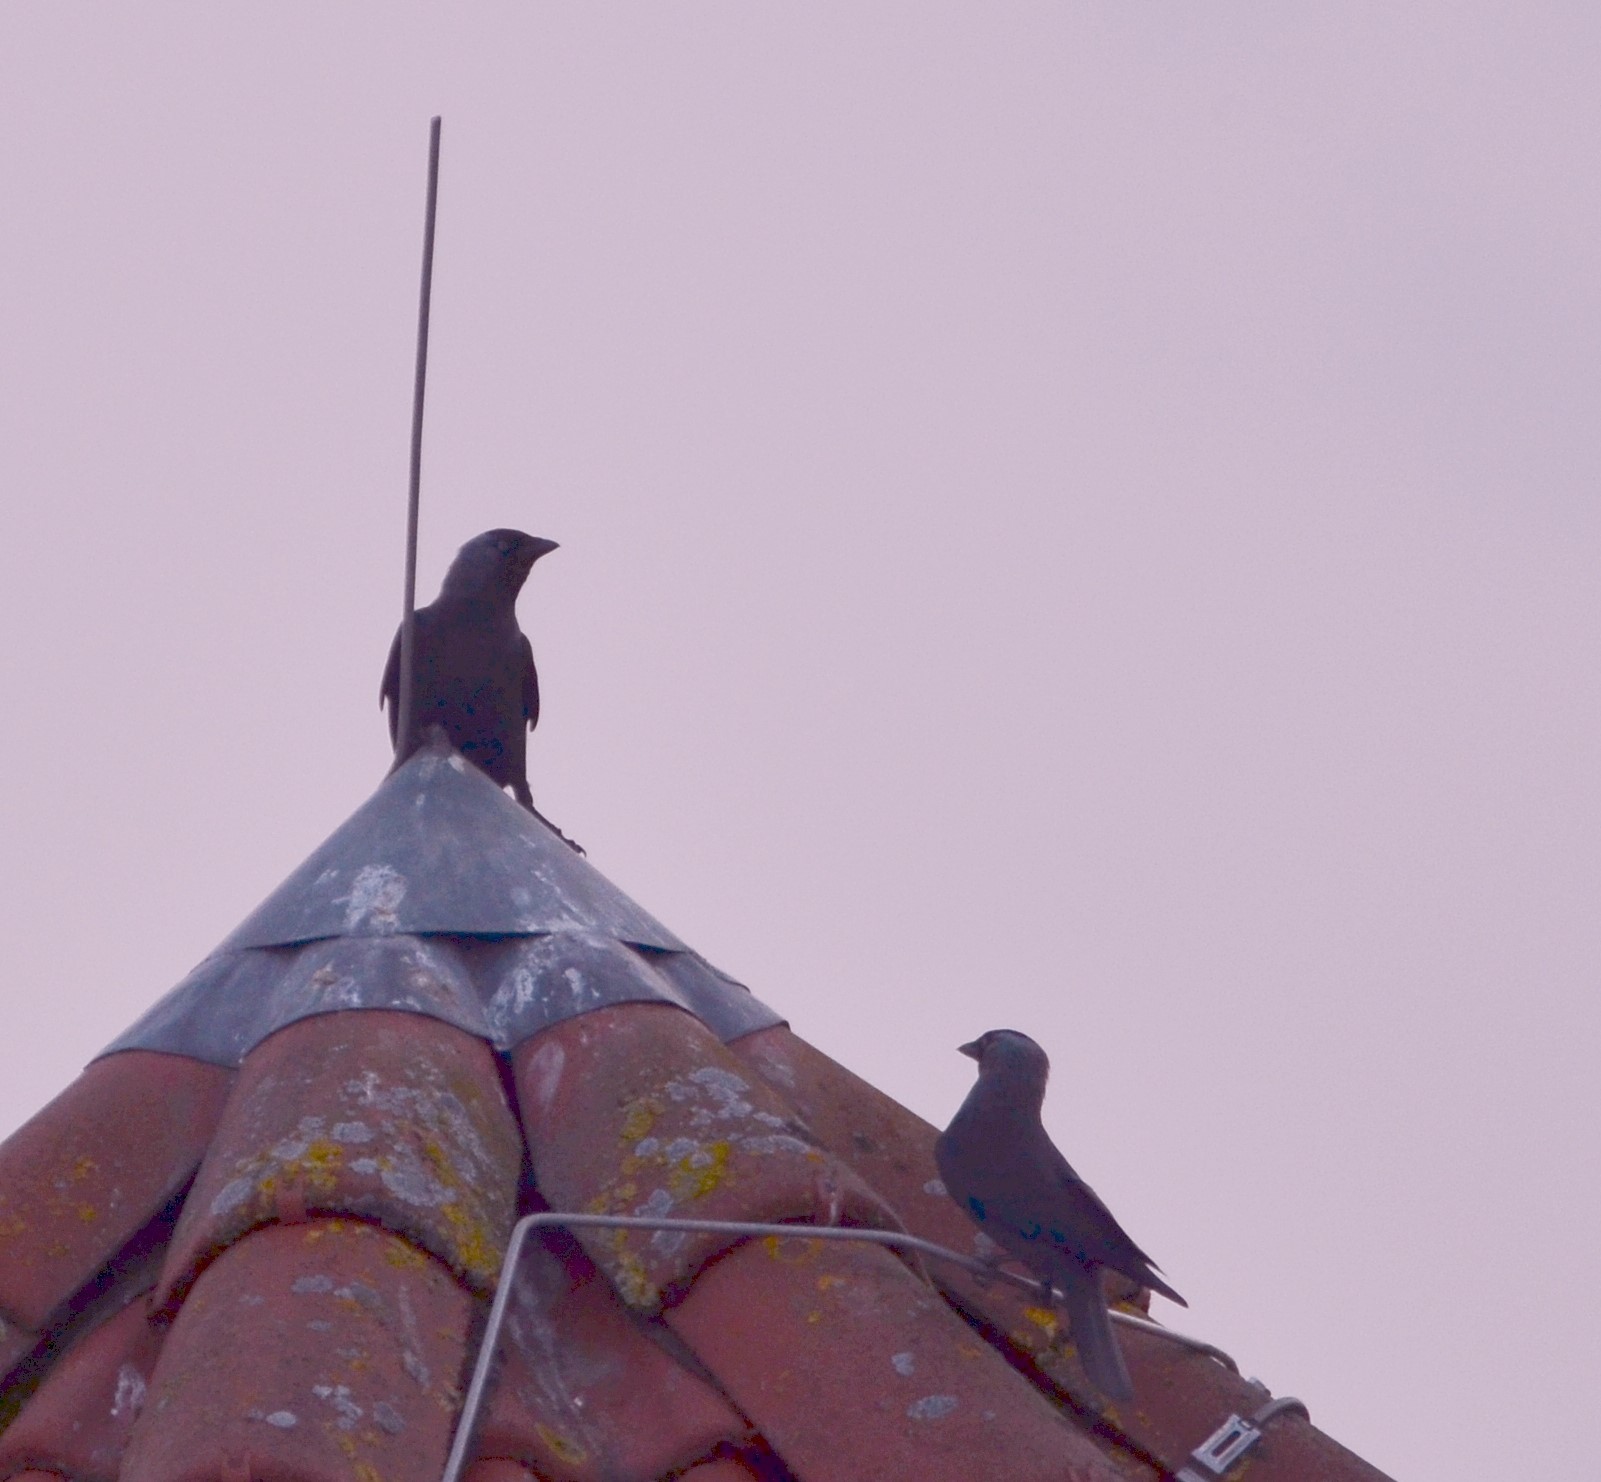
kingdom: Animalia
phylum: Chordata
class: Aves
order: Passeriformes
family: Corvidae
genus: Coloeus
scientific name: Coloeus monedula
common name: Western jackdaw
